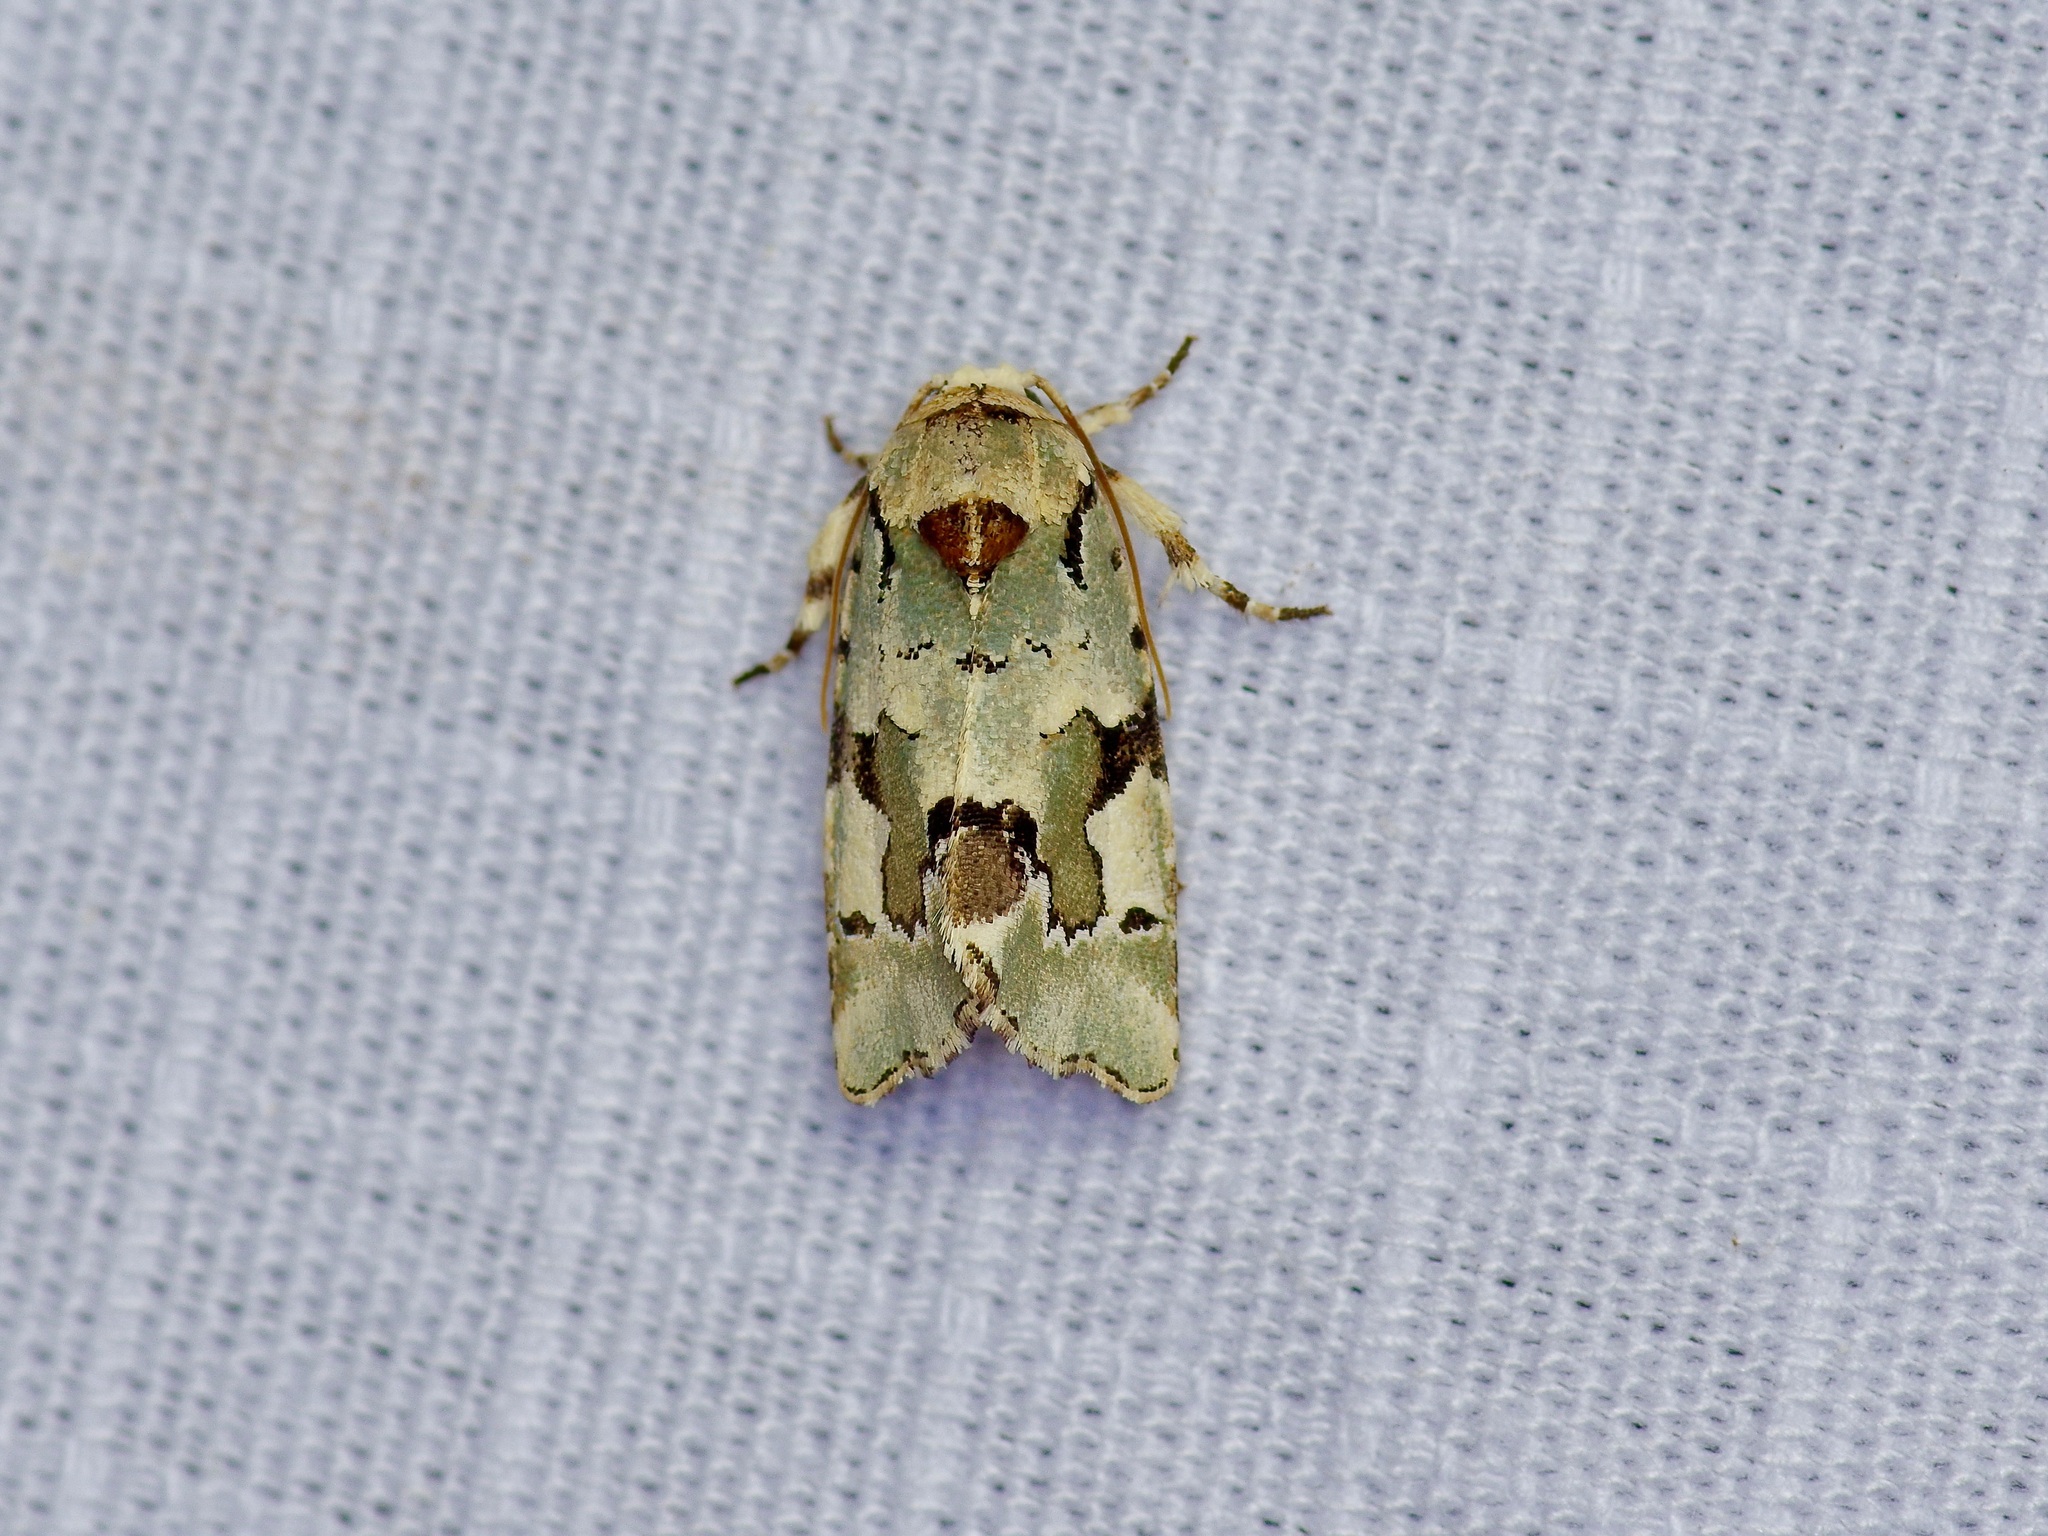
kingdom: Animalia
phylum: Arthropoda
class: Insecta
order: Lepidoptera
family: Noctuidae
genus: Emarginea
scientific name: Emarginea percara
